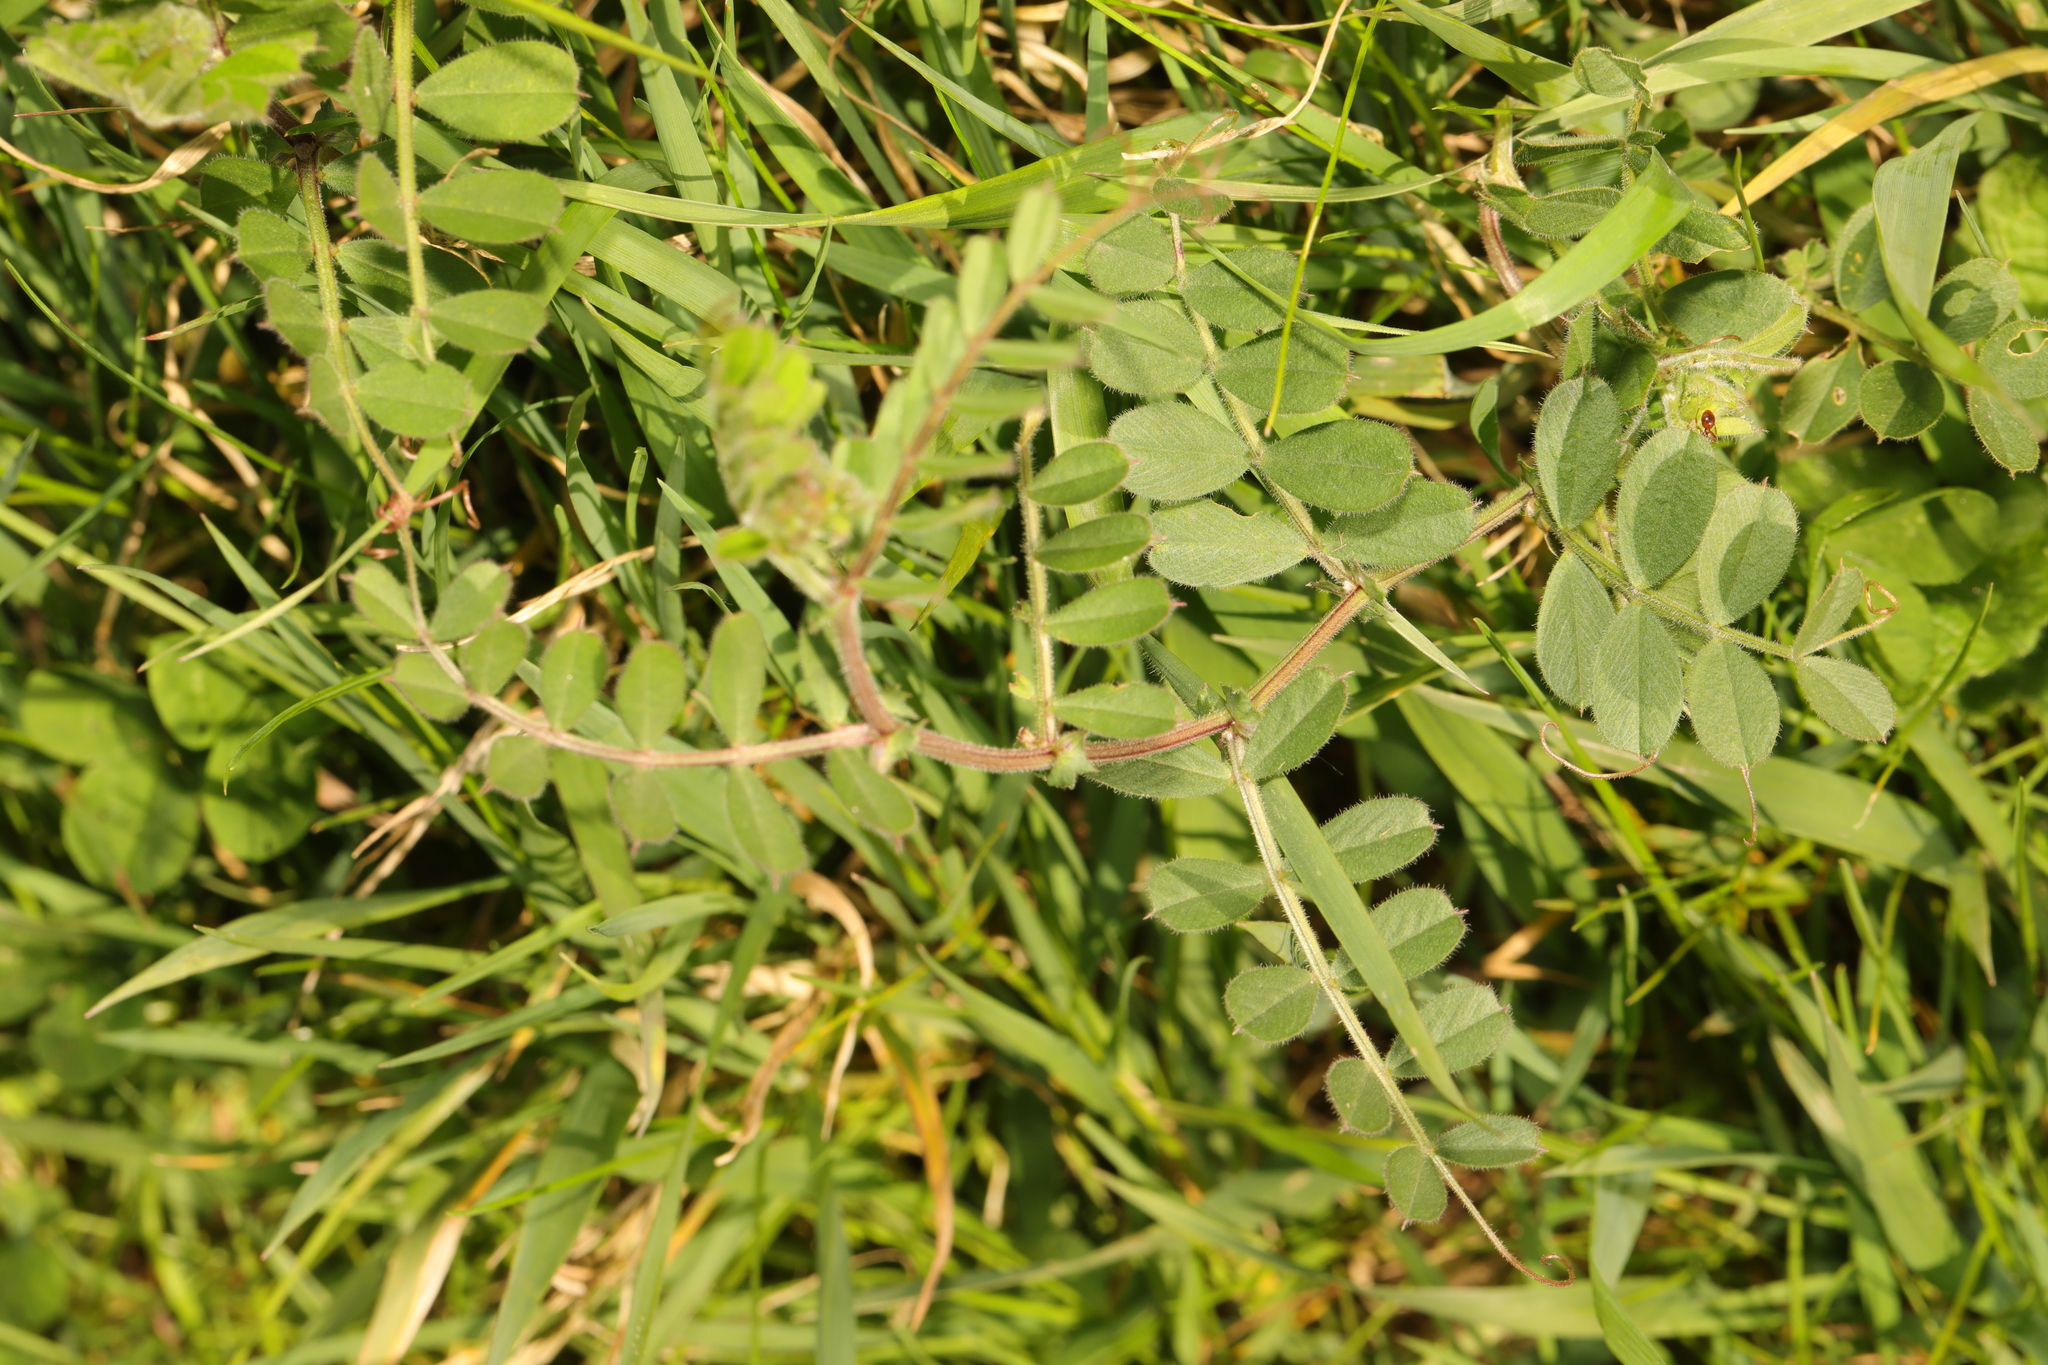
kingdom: Plantae
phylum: Tracheophyta
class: Magnoliopsida
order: Fabales
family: Fabaceae
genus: Vicia
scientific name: Vicia sativa
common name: Garden vetch
